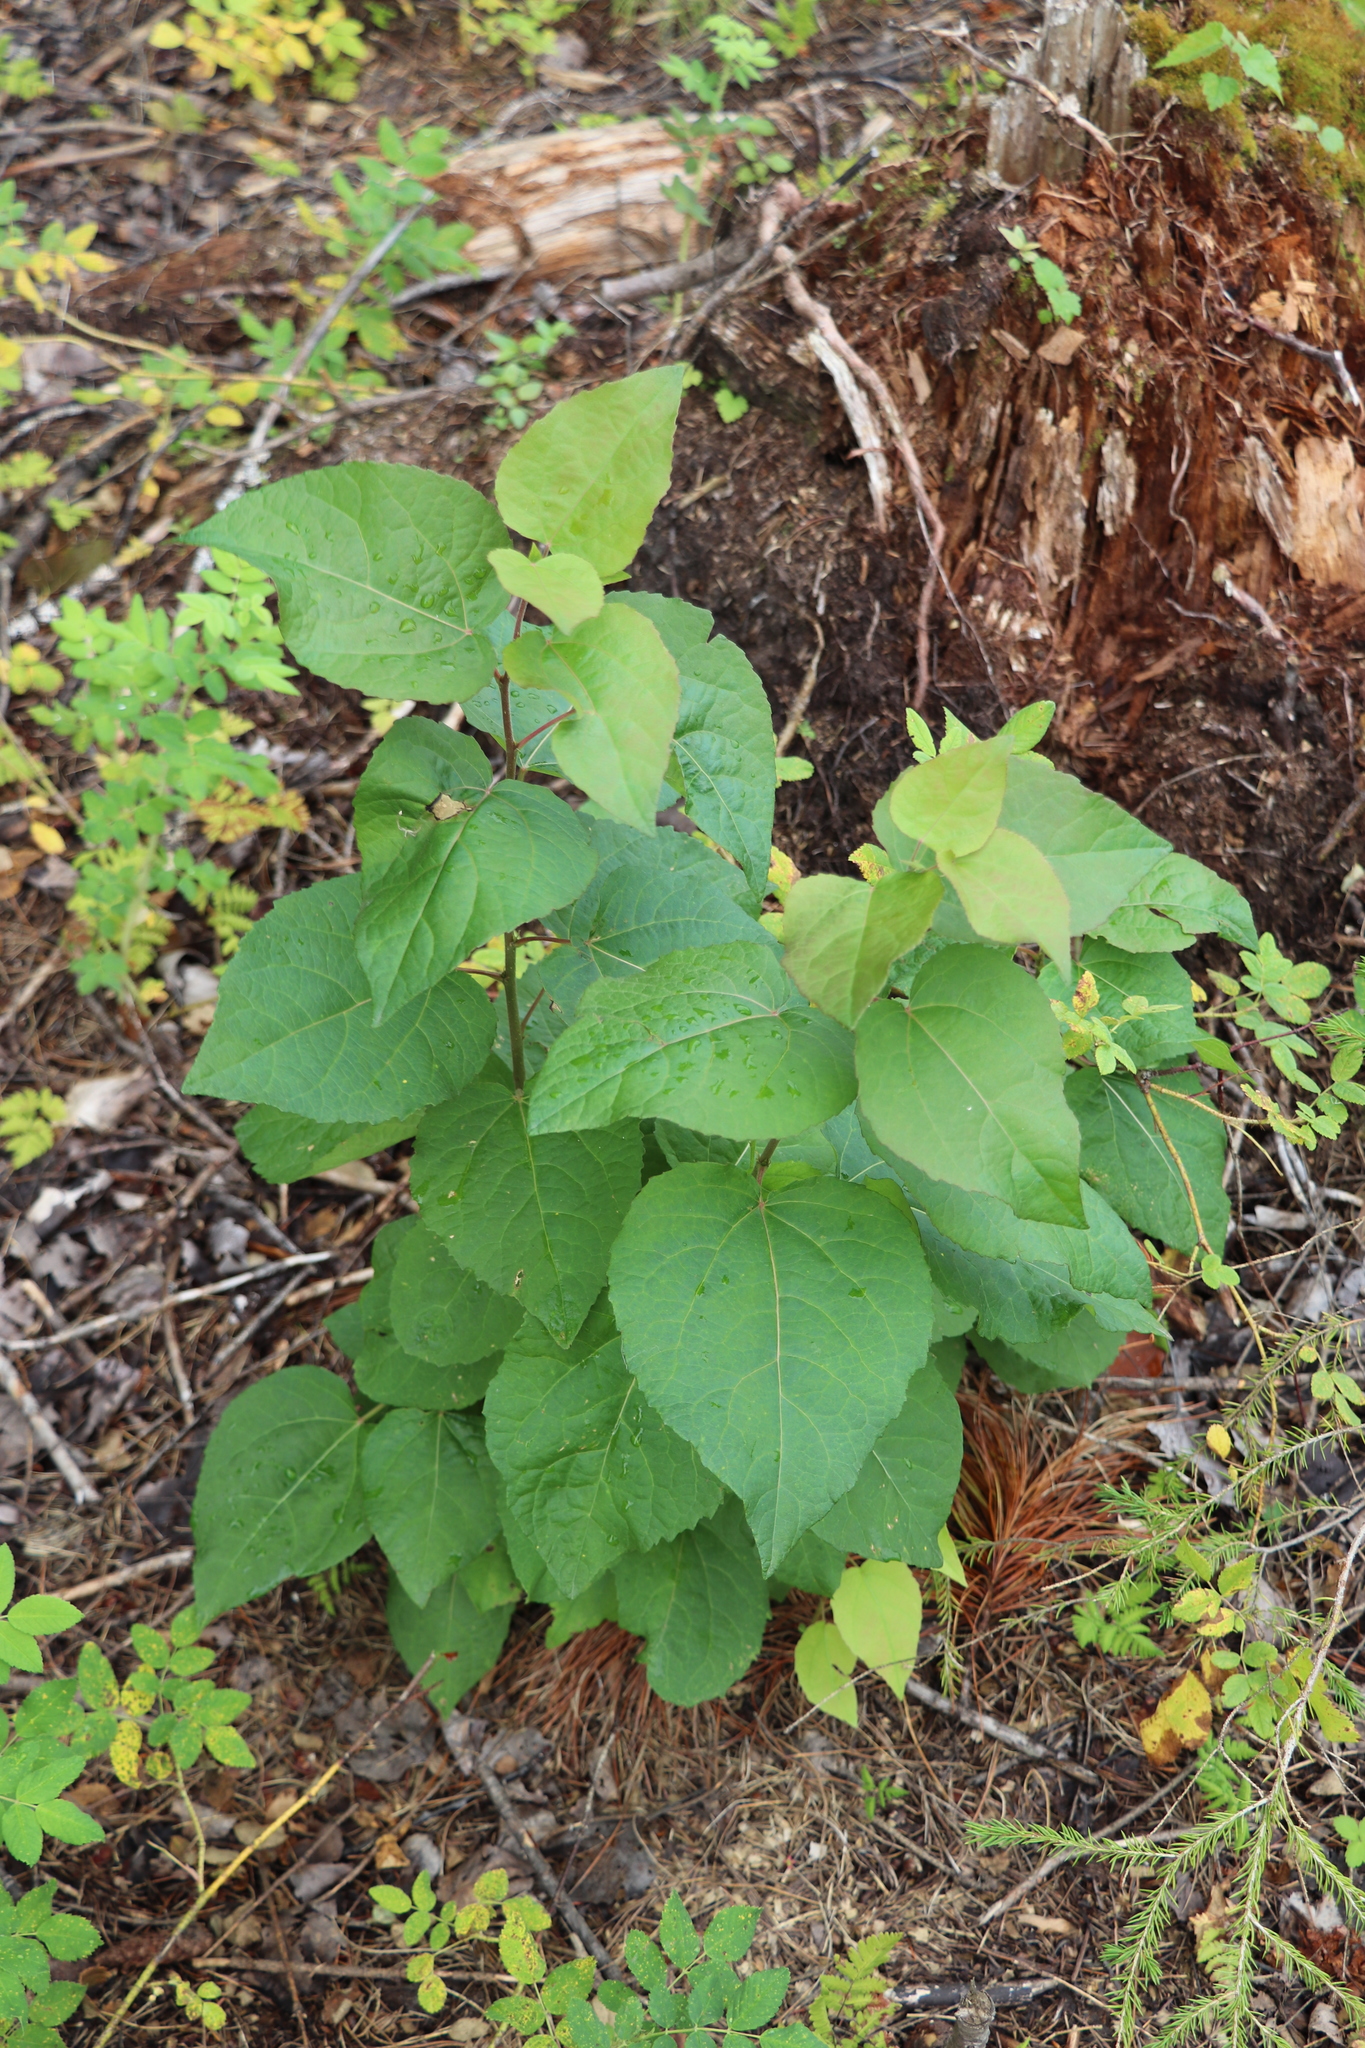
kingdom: Plantae
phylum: Tracheophyta
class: Magnoliopsida
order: Malpighiales
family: Salicaceae
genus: Populus
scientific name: Populus tremula
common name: European aspen
